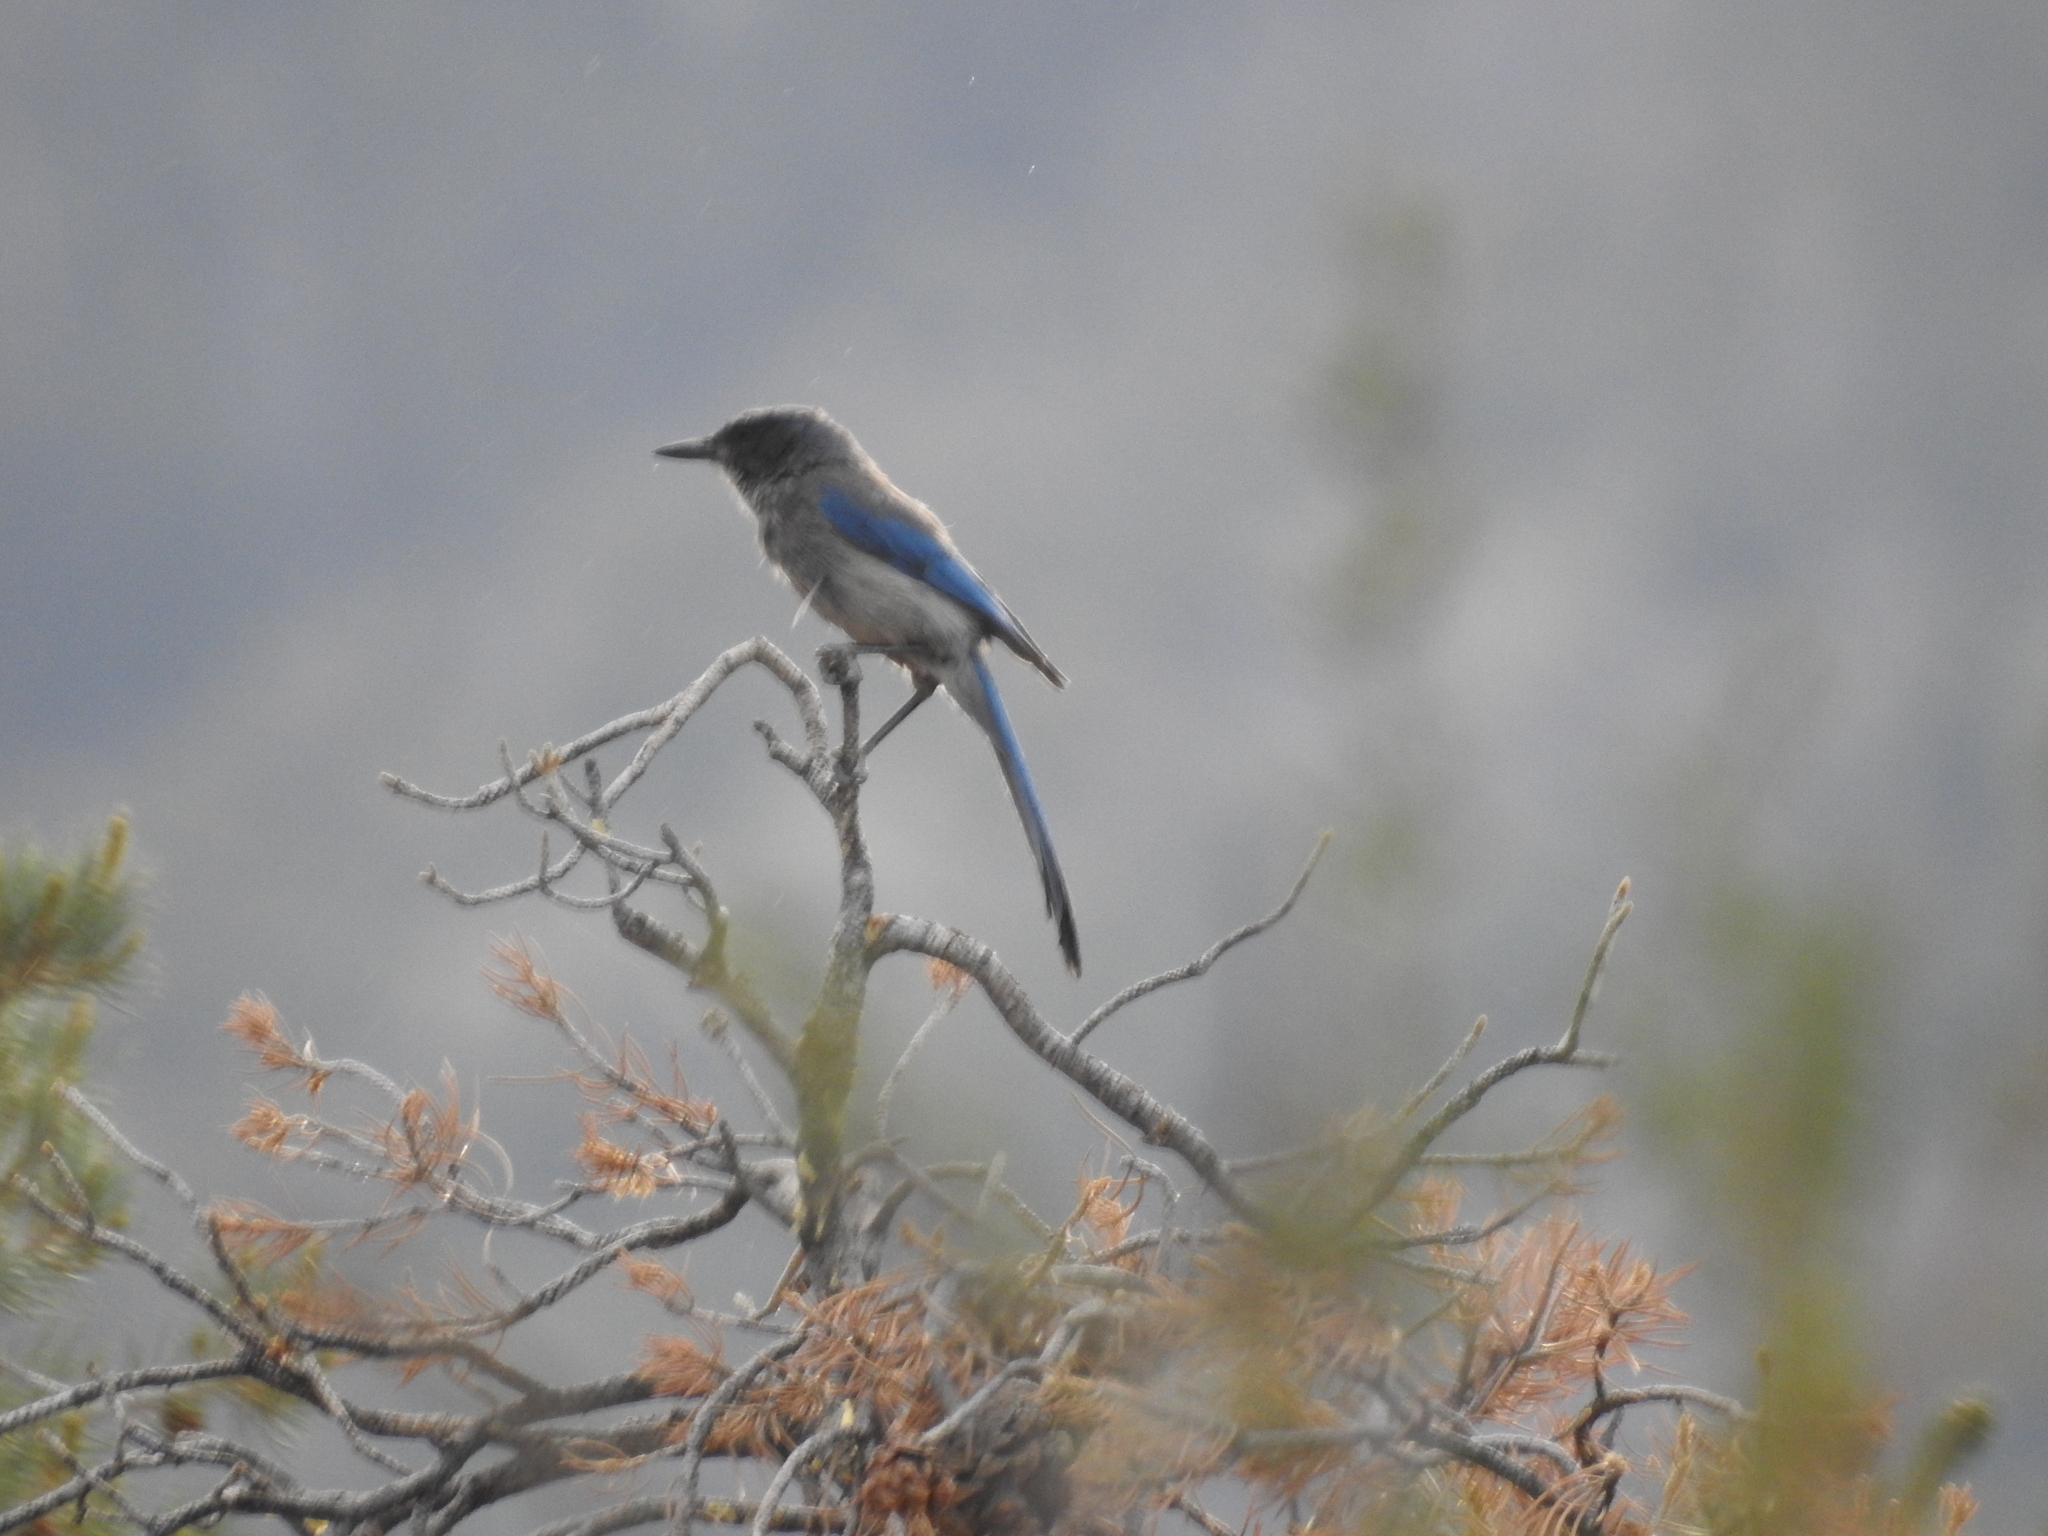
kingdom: Animalia
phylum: Chordata
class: Aves
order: Passeriformes
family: Corvidae
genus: Aphelocoma
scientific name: Aphelocoma woodhouseii
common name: Woodhouse's scrub-jay
